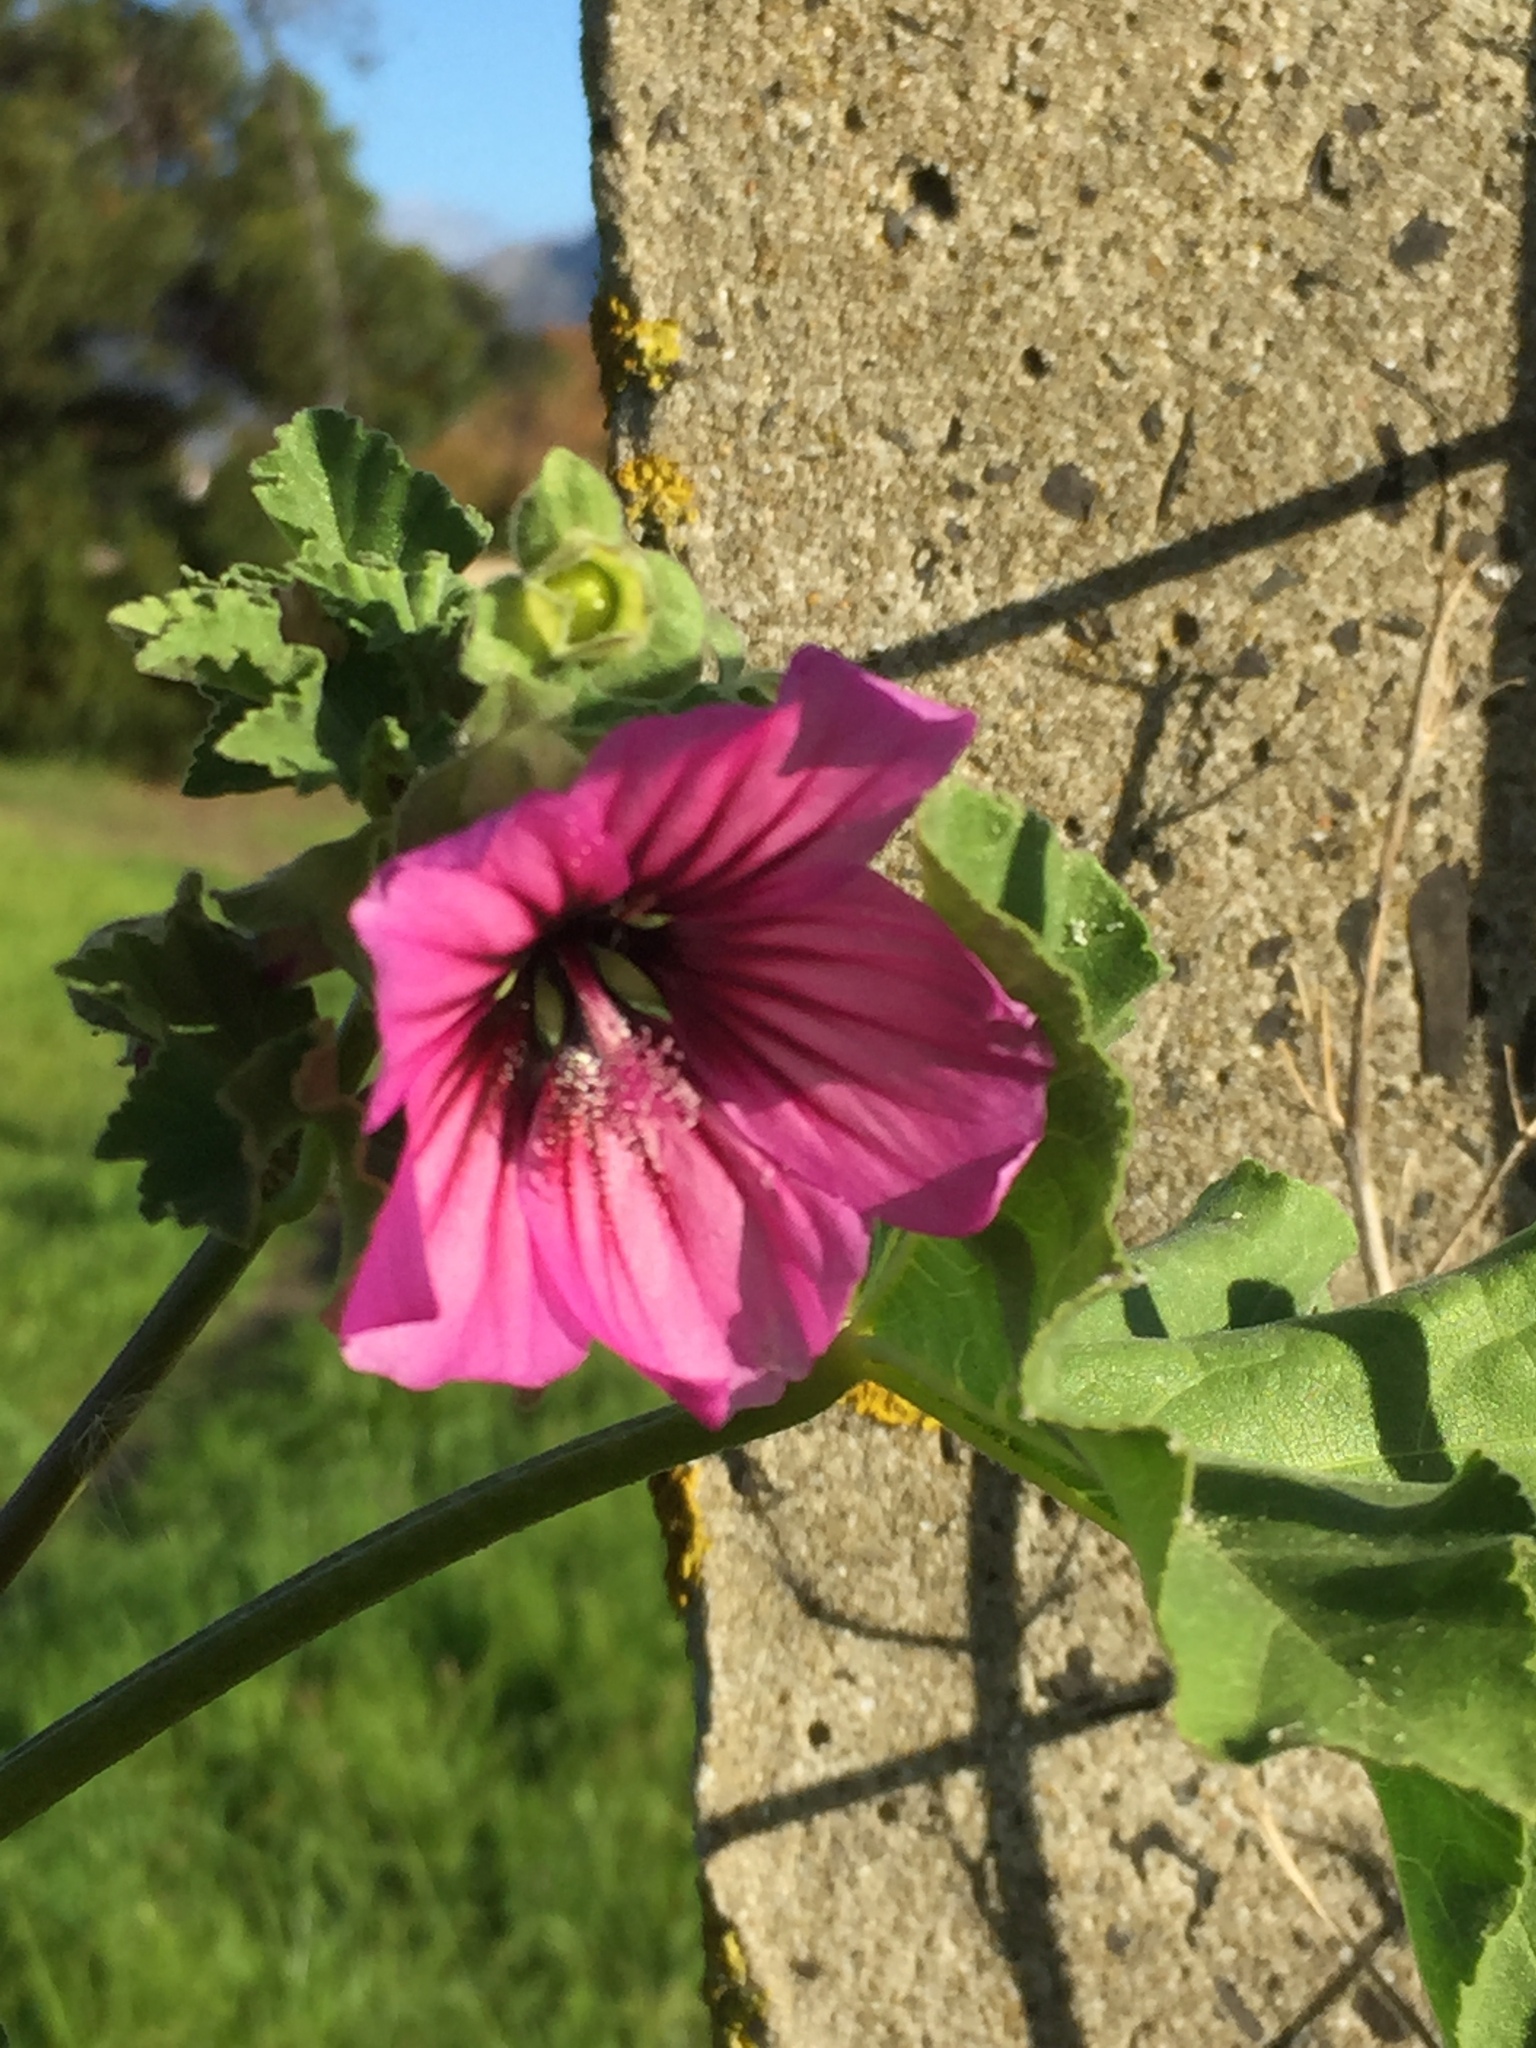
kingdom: Plantae
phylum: Tracheophyta
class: Magnoliopsida
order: Malvales
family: Malvaceae
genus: Malva
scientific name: Malva arborea
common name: Tree mallow
